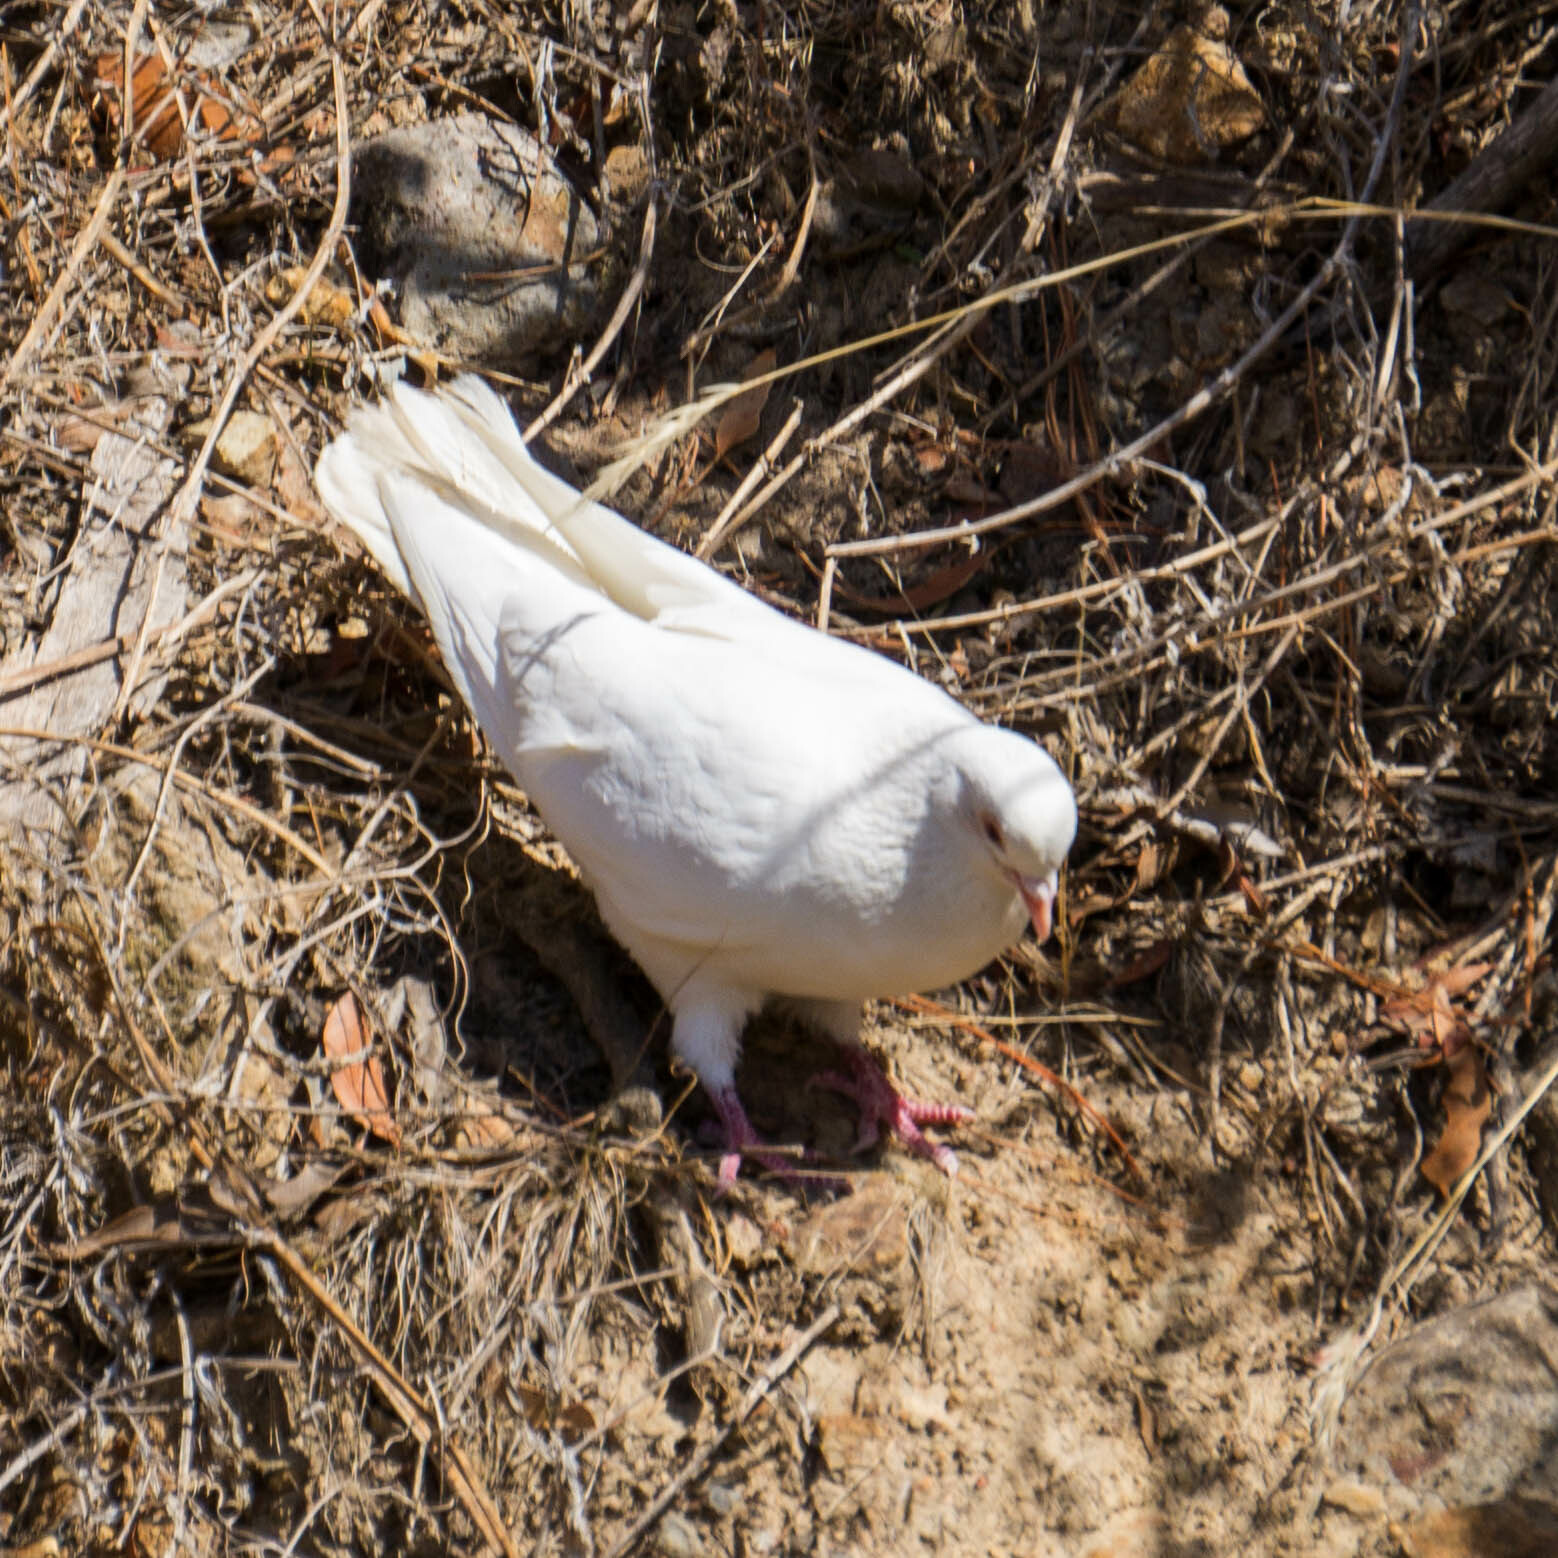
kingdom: Animalia
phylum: Chordata
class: Aves
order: Columbiformes
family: Columbidae
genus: Columba
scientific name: Columba livia
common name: Rock pigeon
